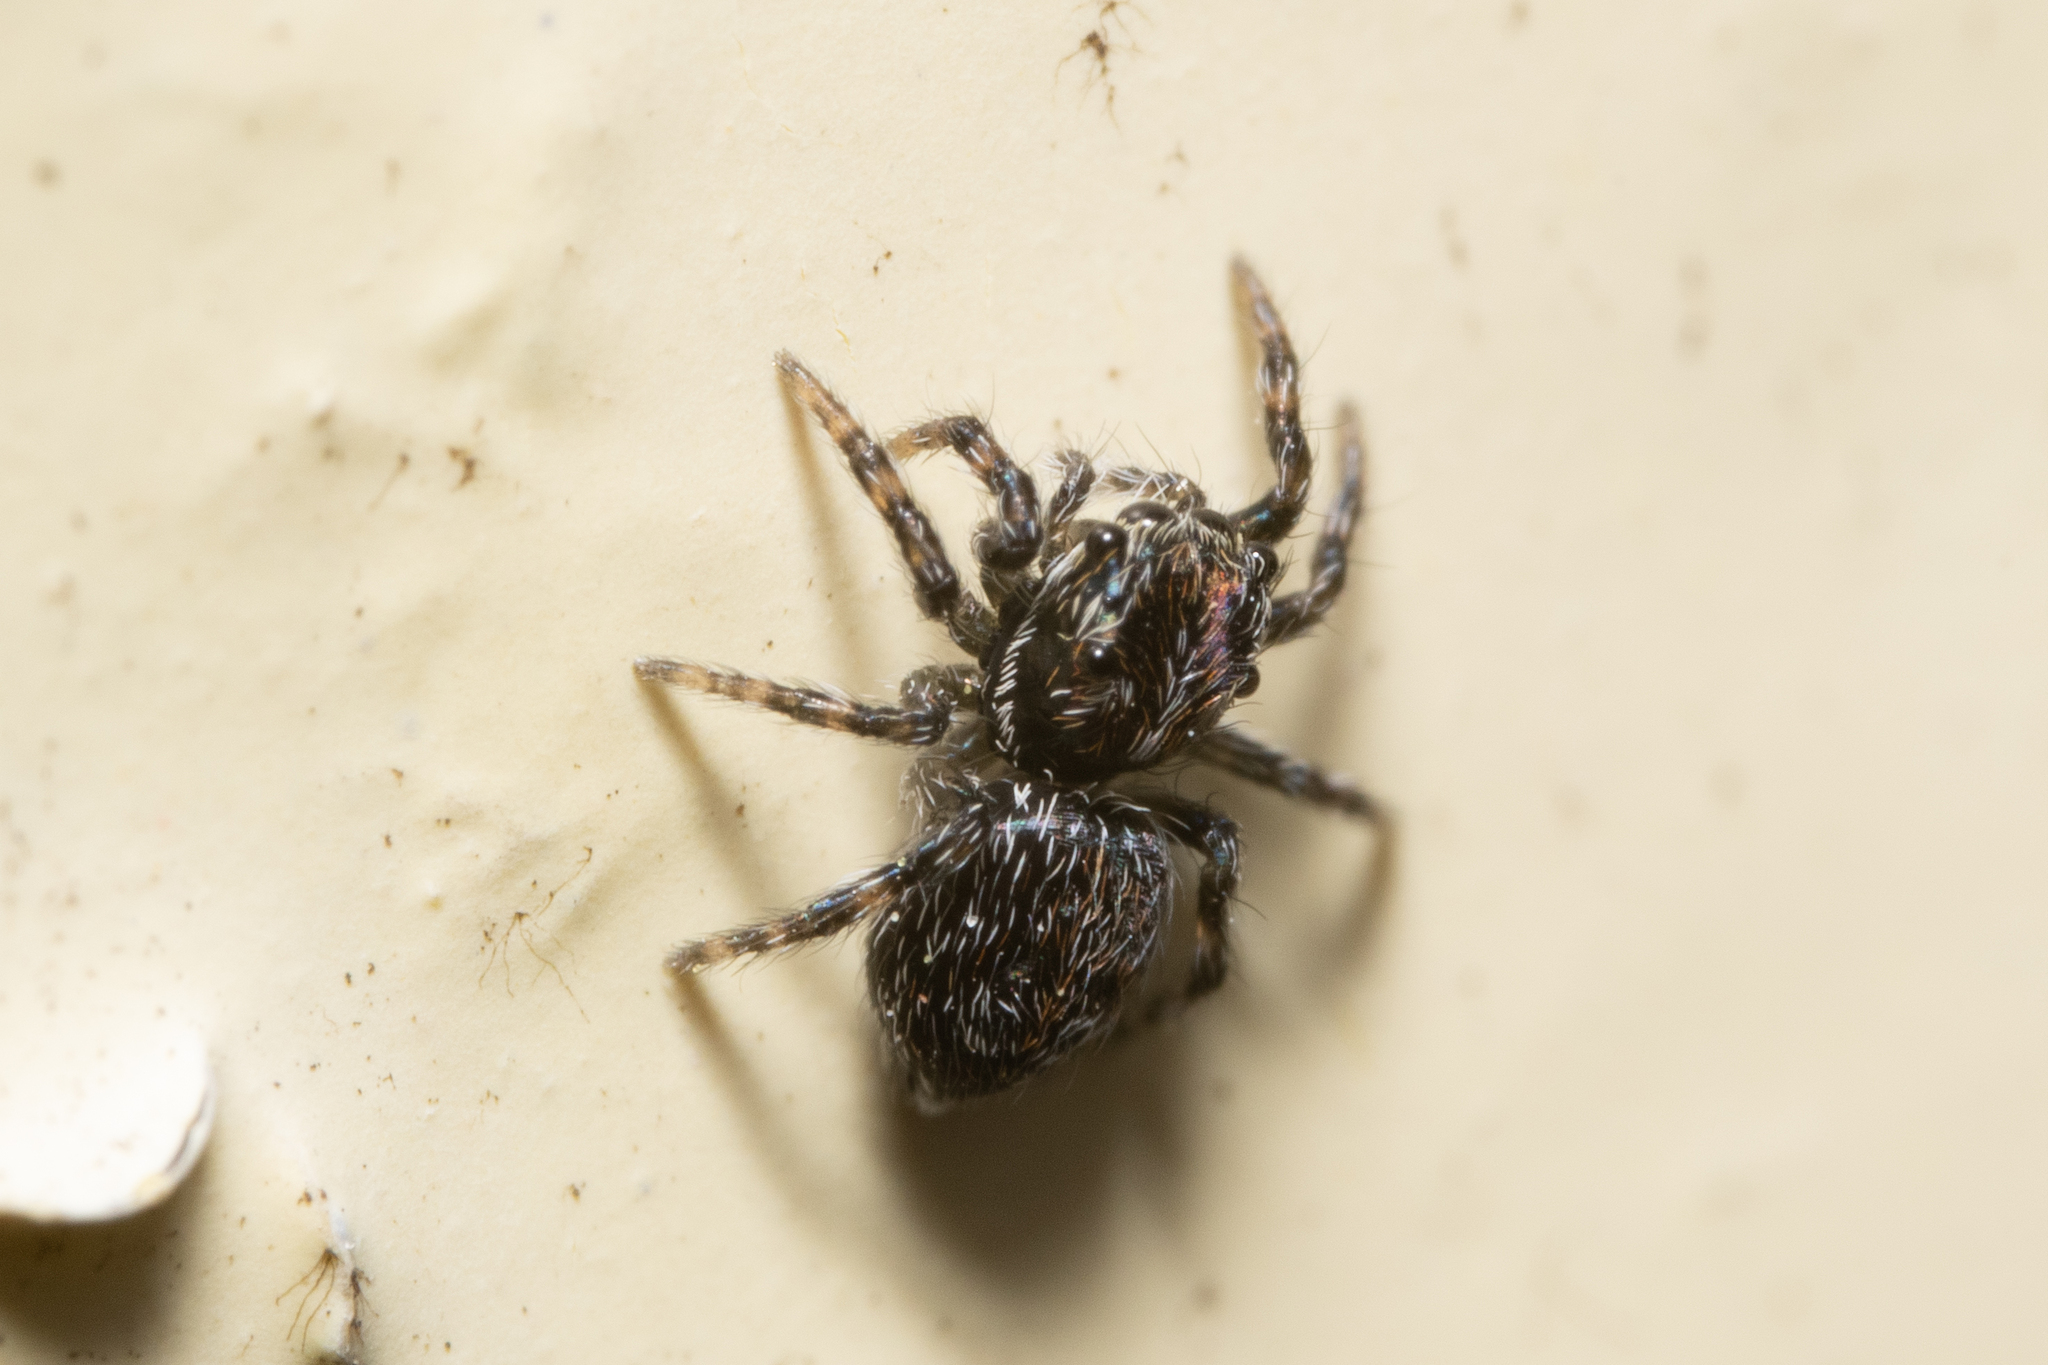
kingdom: Animalia
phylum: Arthropoda
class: Arachnida
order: Araneae
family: Salticidae
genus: Attulus
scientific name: Attulus terebratus
